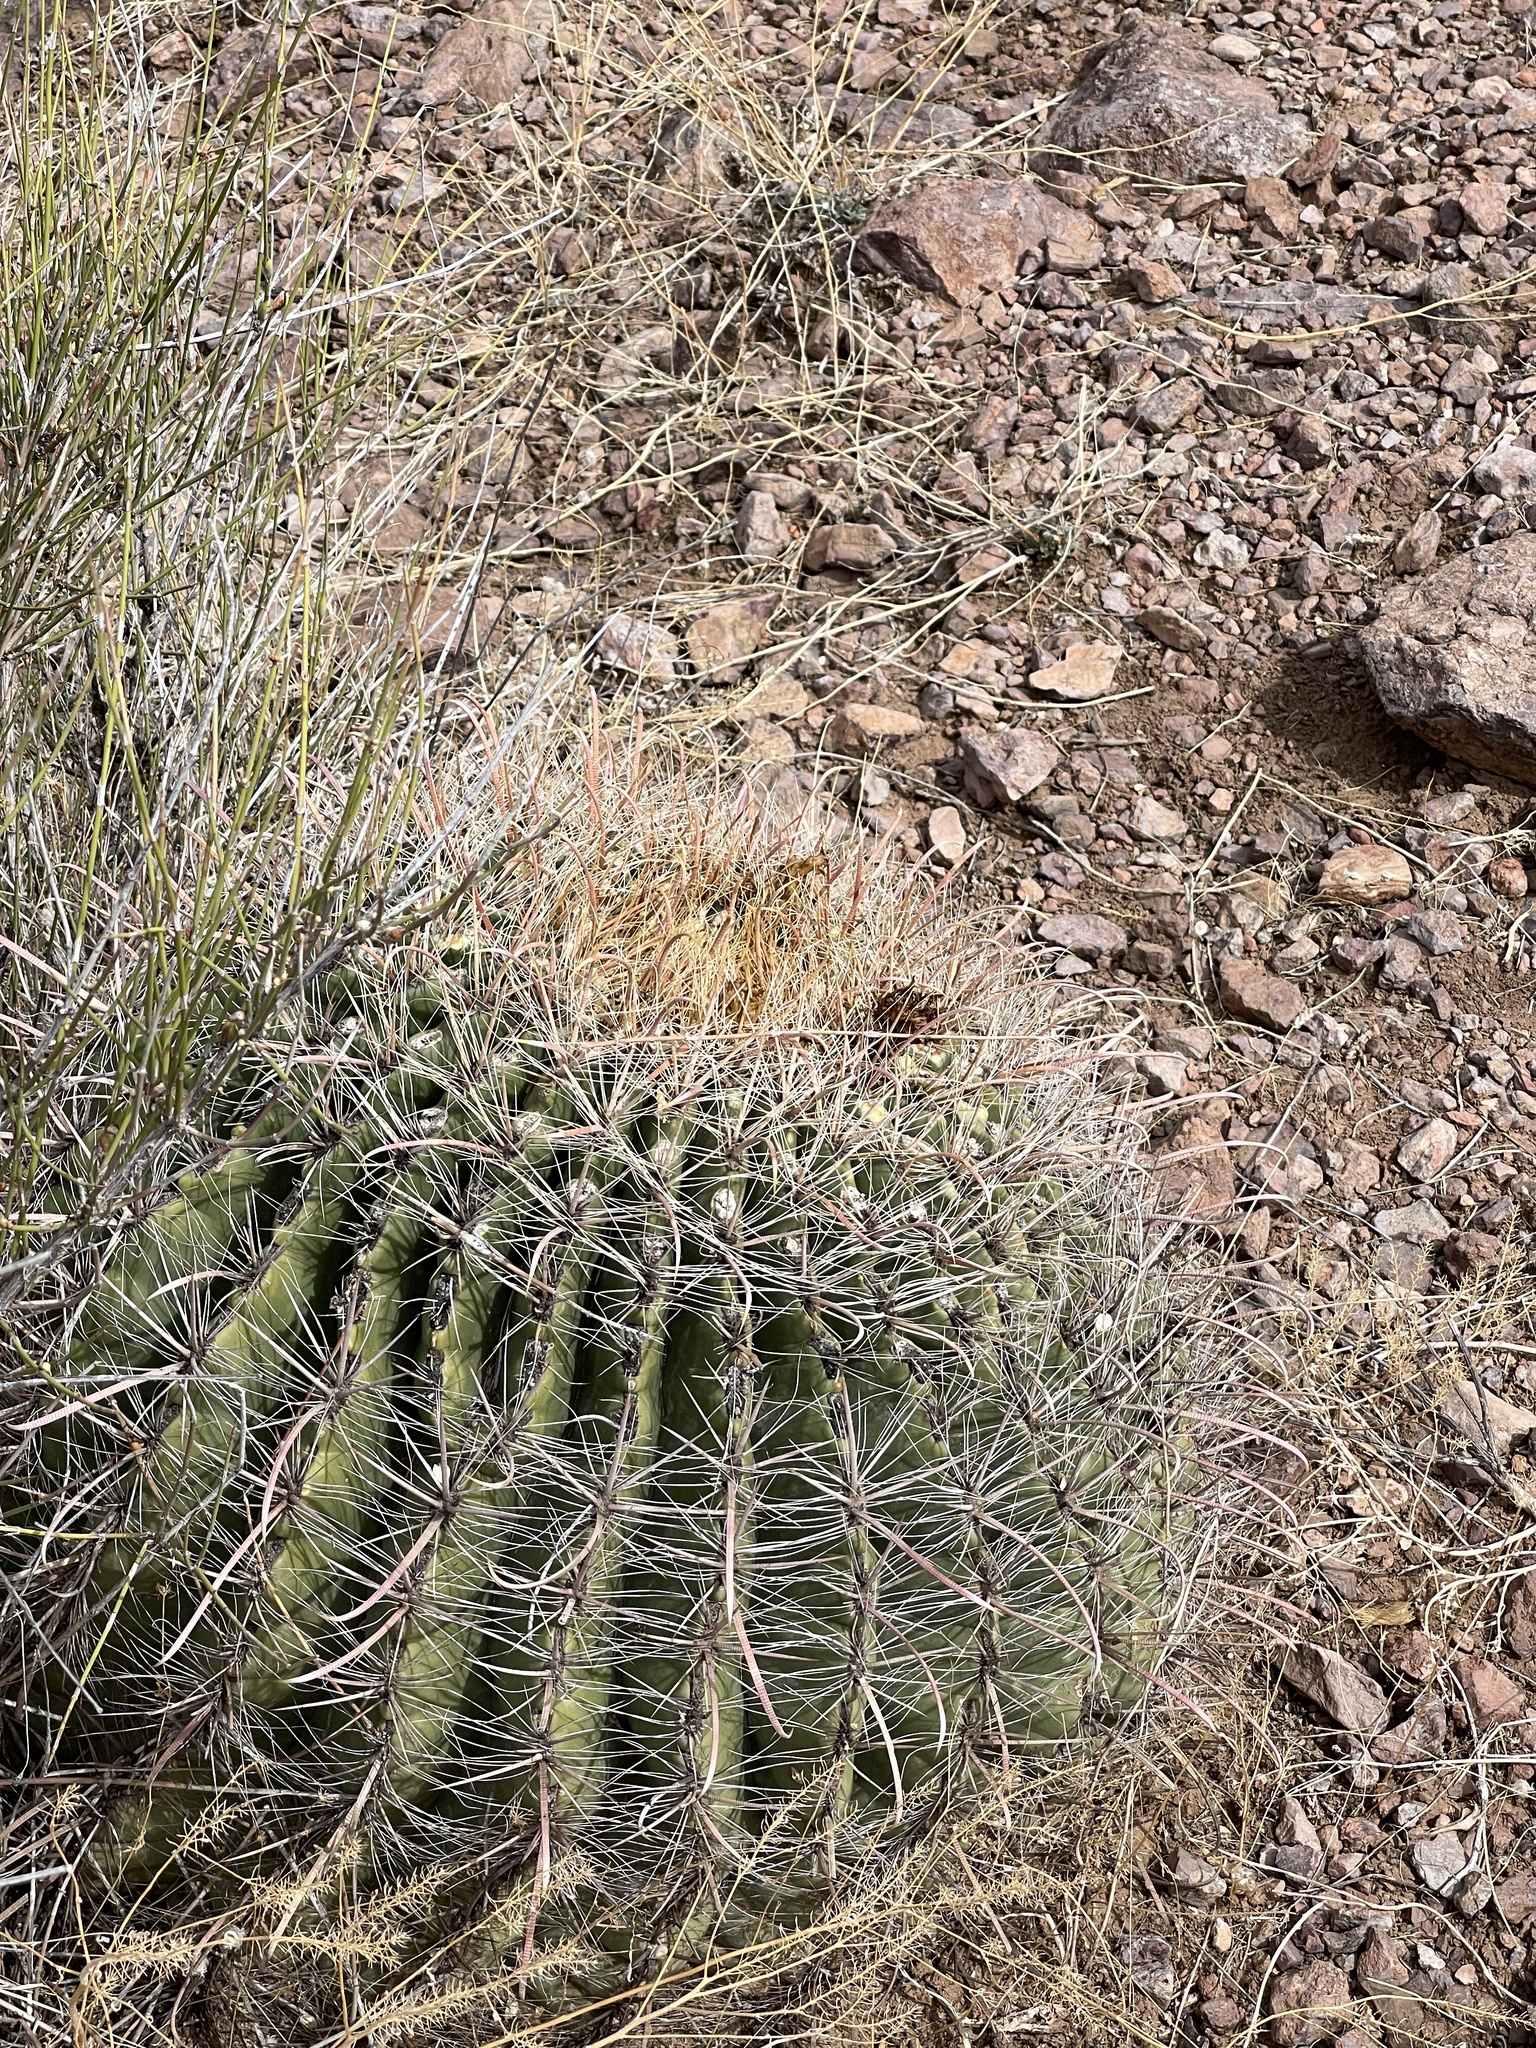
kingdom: Plantae
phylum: Tracheophyta
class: Magnoliopsida
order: Caryophyllales
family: Cactaceae
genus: Ferocactus
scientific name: Ferocactus wislizeni
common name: Candy barrel cactus
